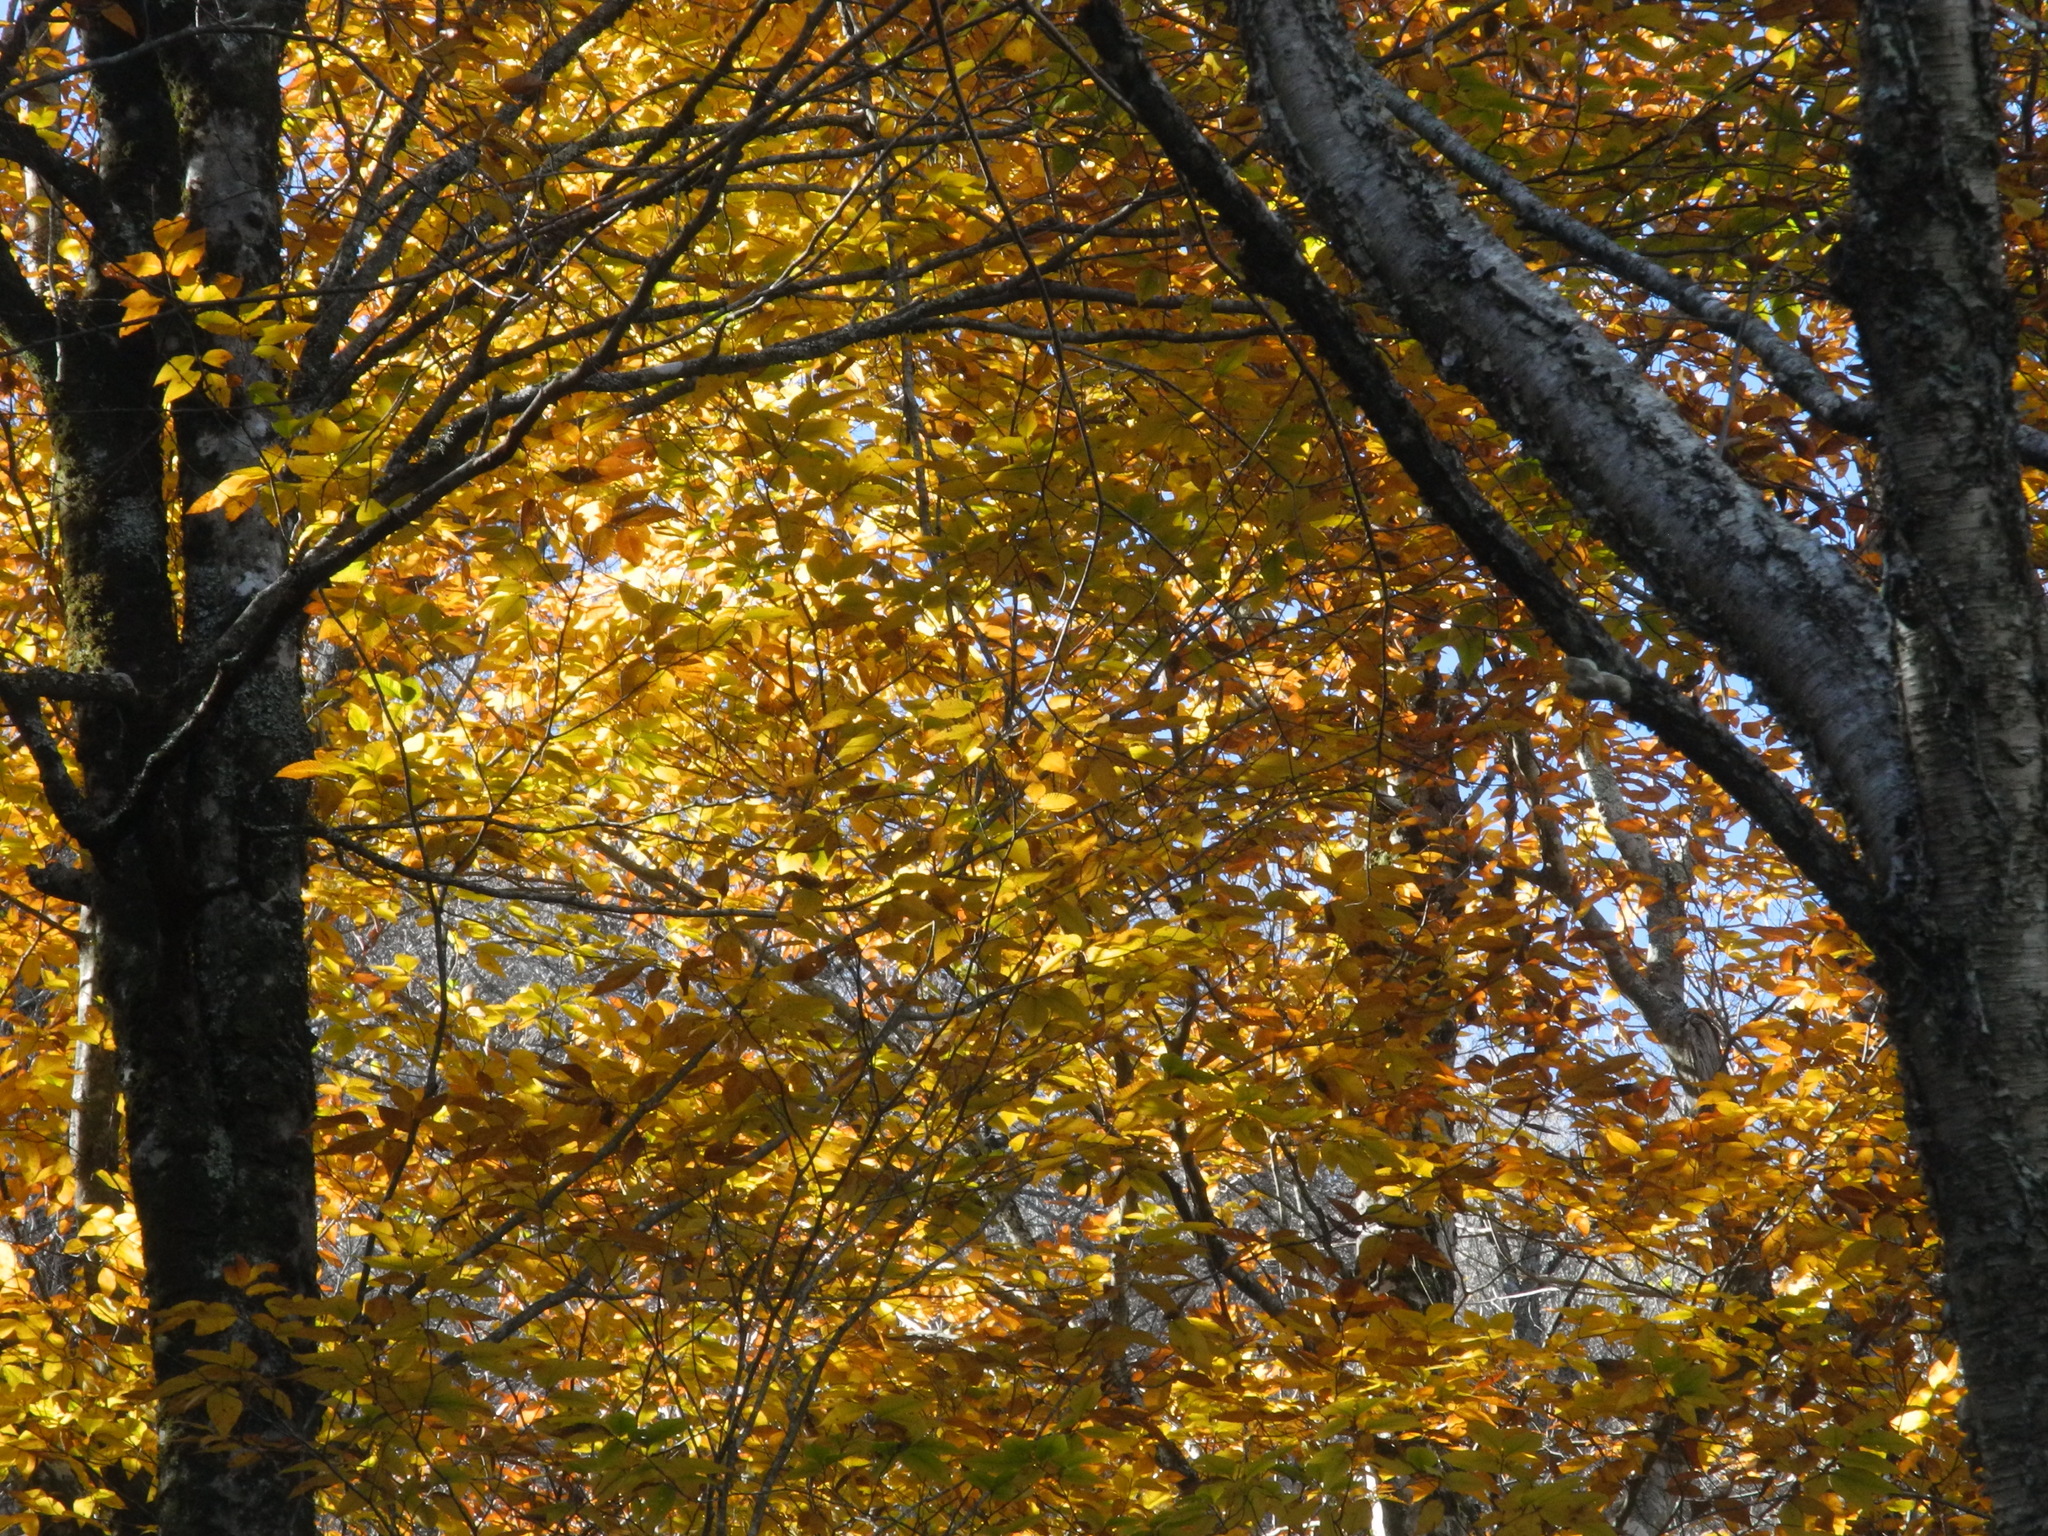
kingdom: Plantae
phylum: Tracheophyta
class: Magnoliopsida
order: Fagales
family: Betulaceae
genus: Betula
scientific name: Betula lenta
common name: Black birch
